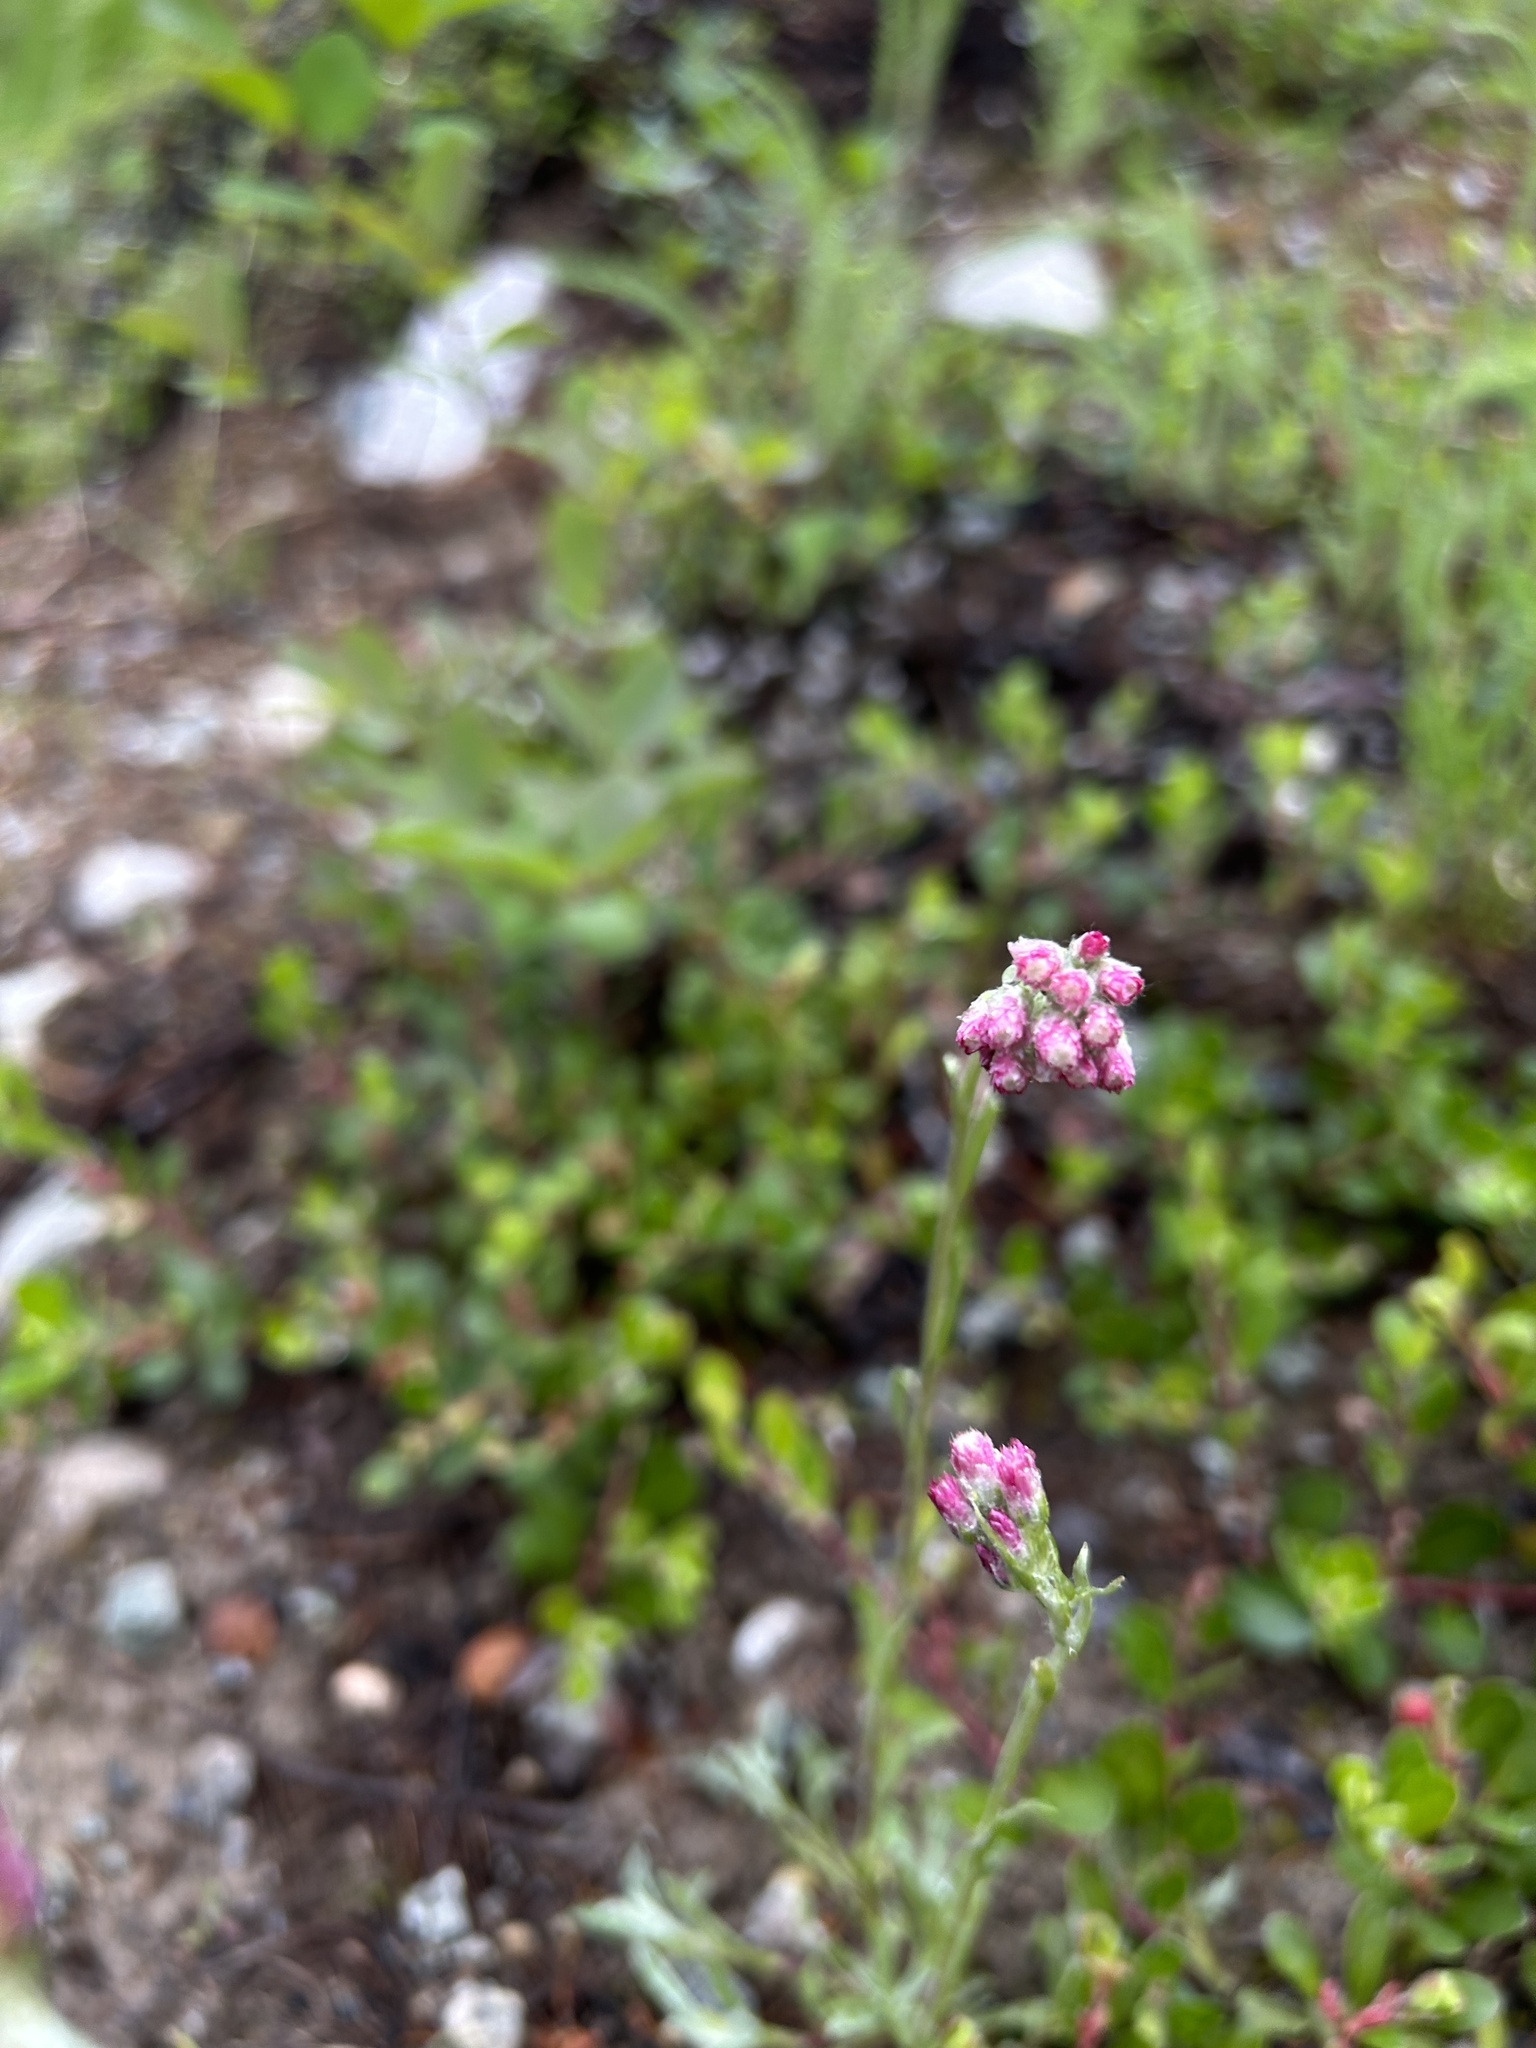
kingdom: Plantae
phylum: Tracheophyta
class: Magnoliopsida
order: Asterales
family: Asteraceae
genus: Antennaria
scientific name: Antennaria rosea
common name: Rosy pussytoes
